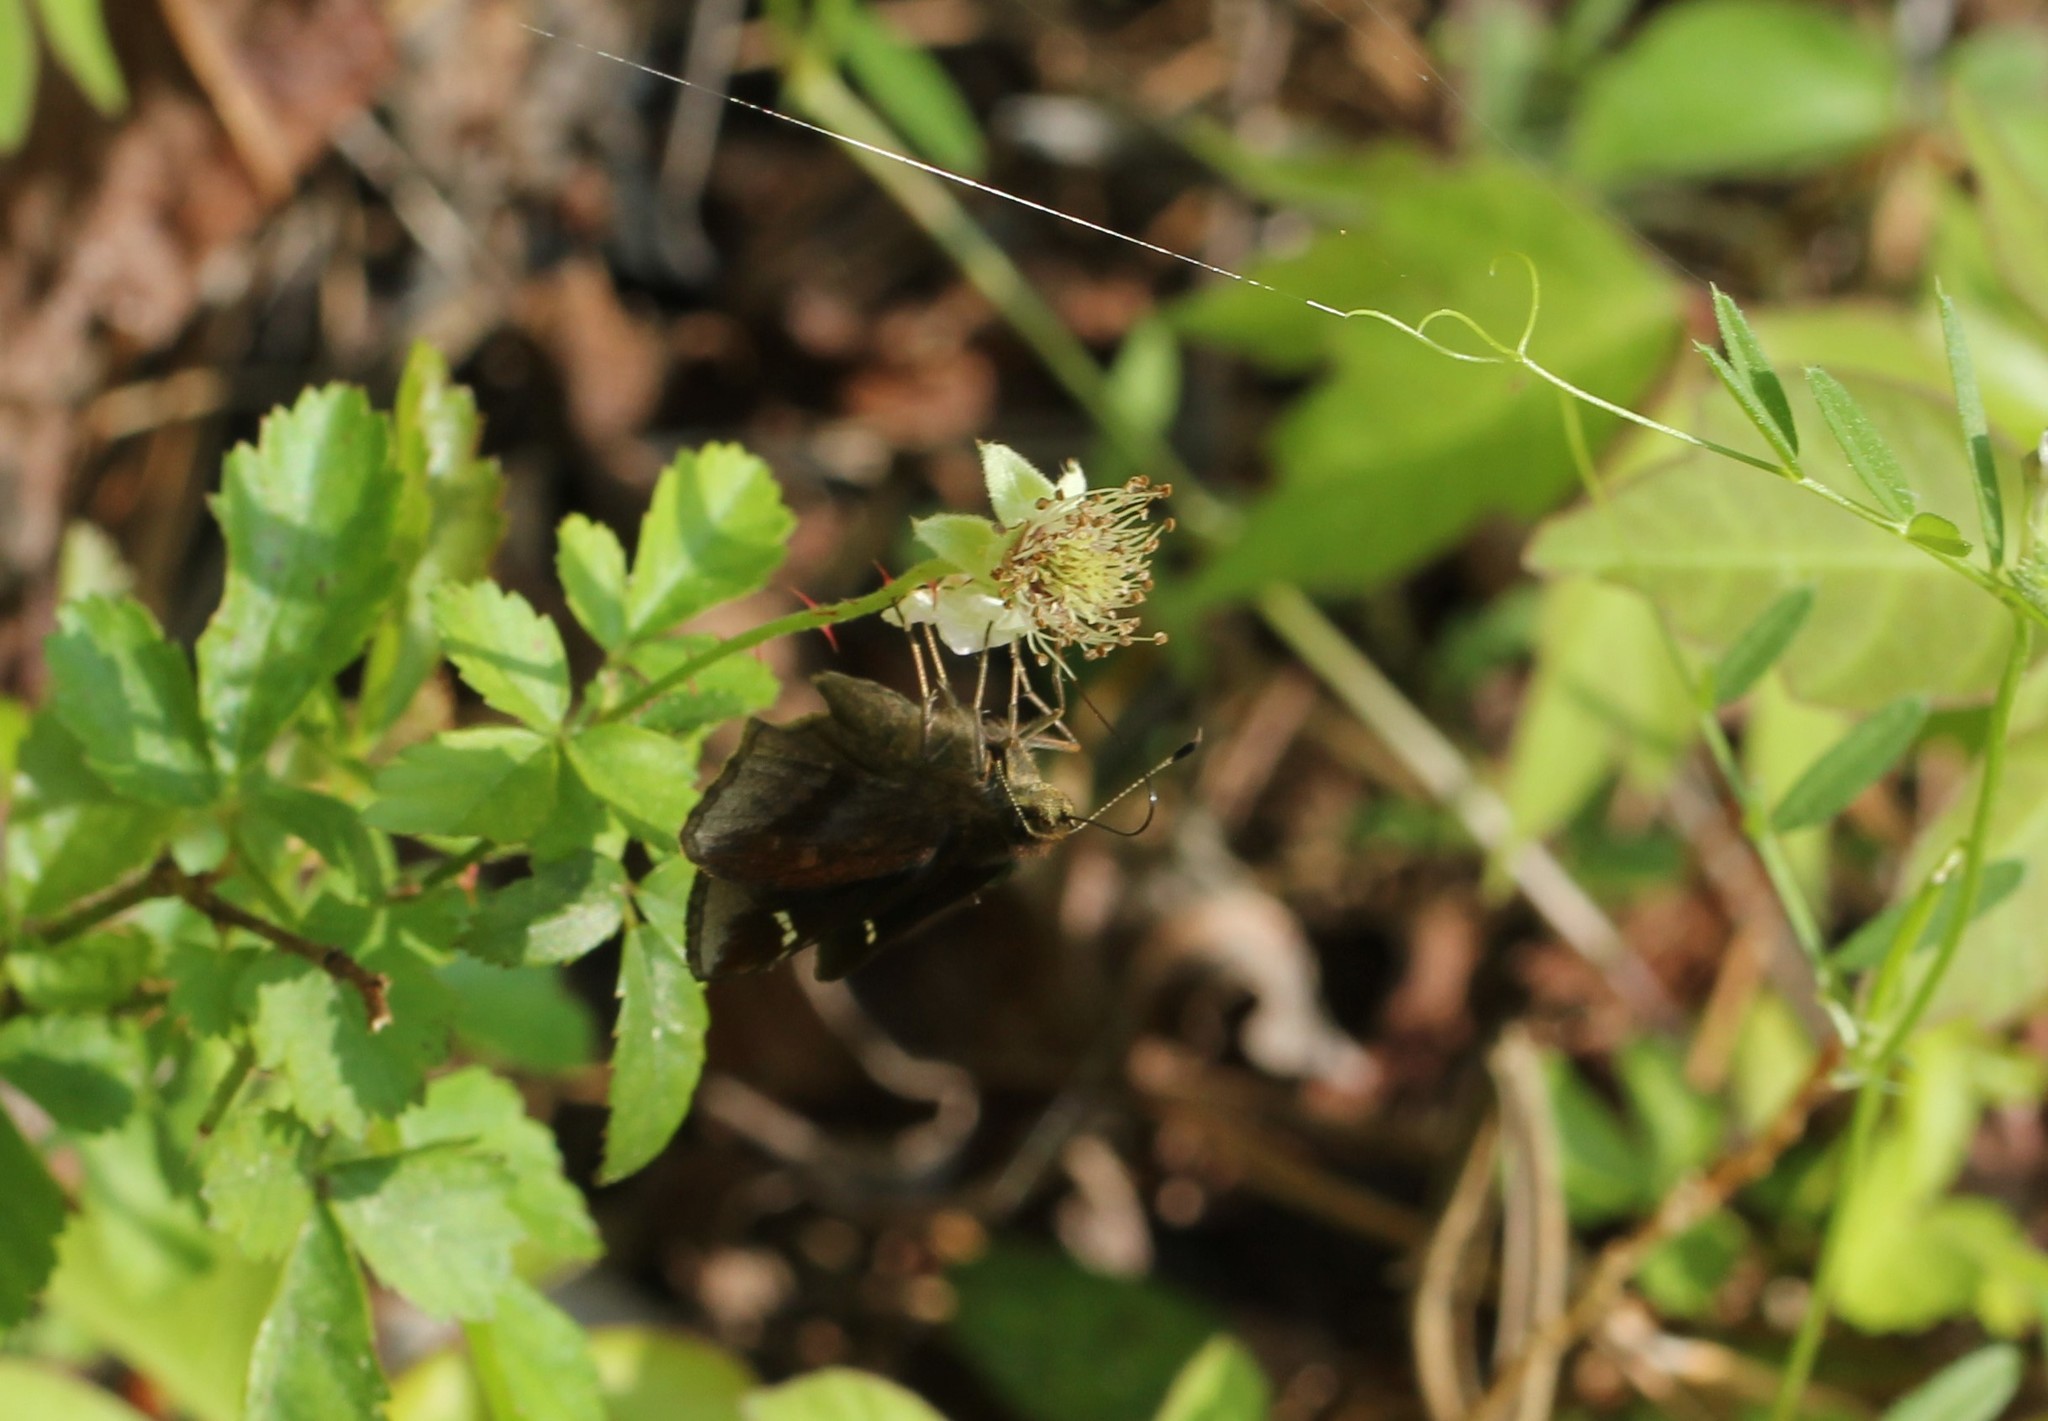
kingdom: Animalia
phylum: Arthropoda
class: Insecta
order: Lepidoptera
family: Hesperiidae
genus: Lerema
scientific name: Lerema accius
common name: Clouded skipper
